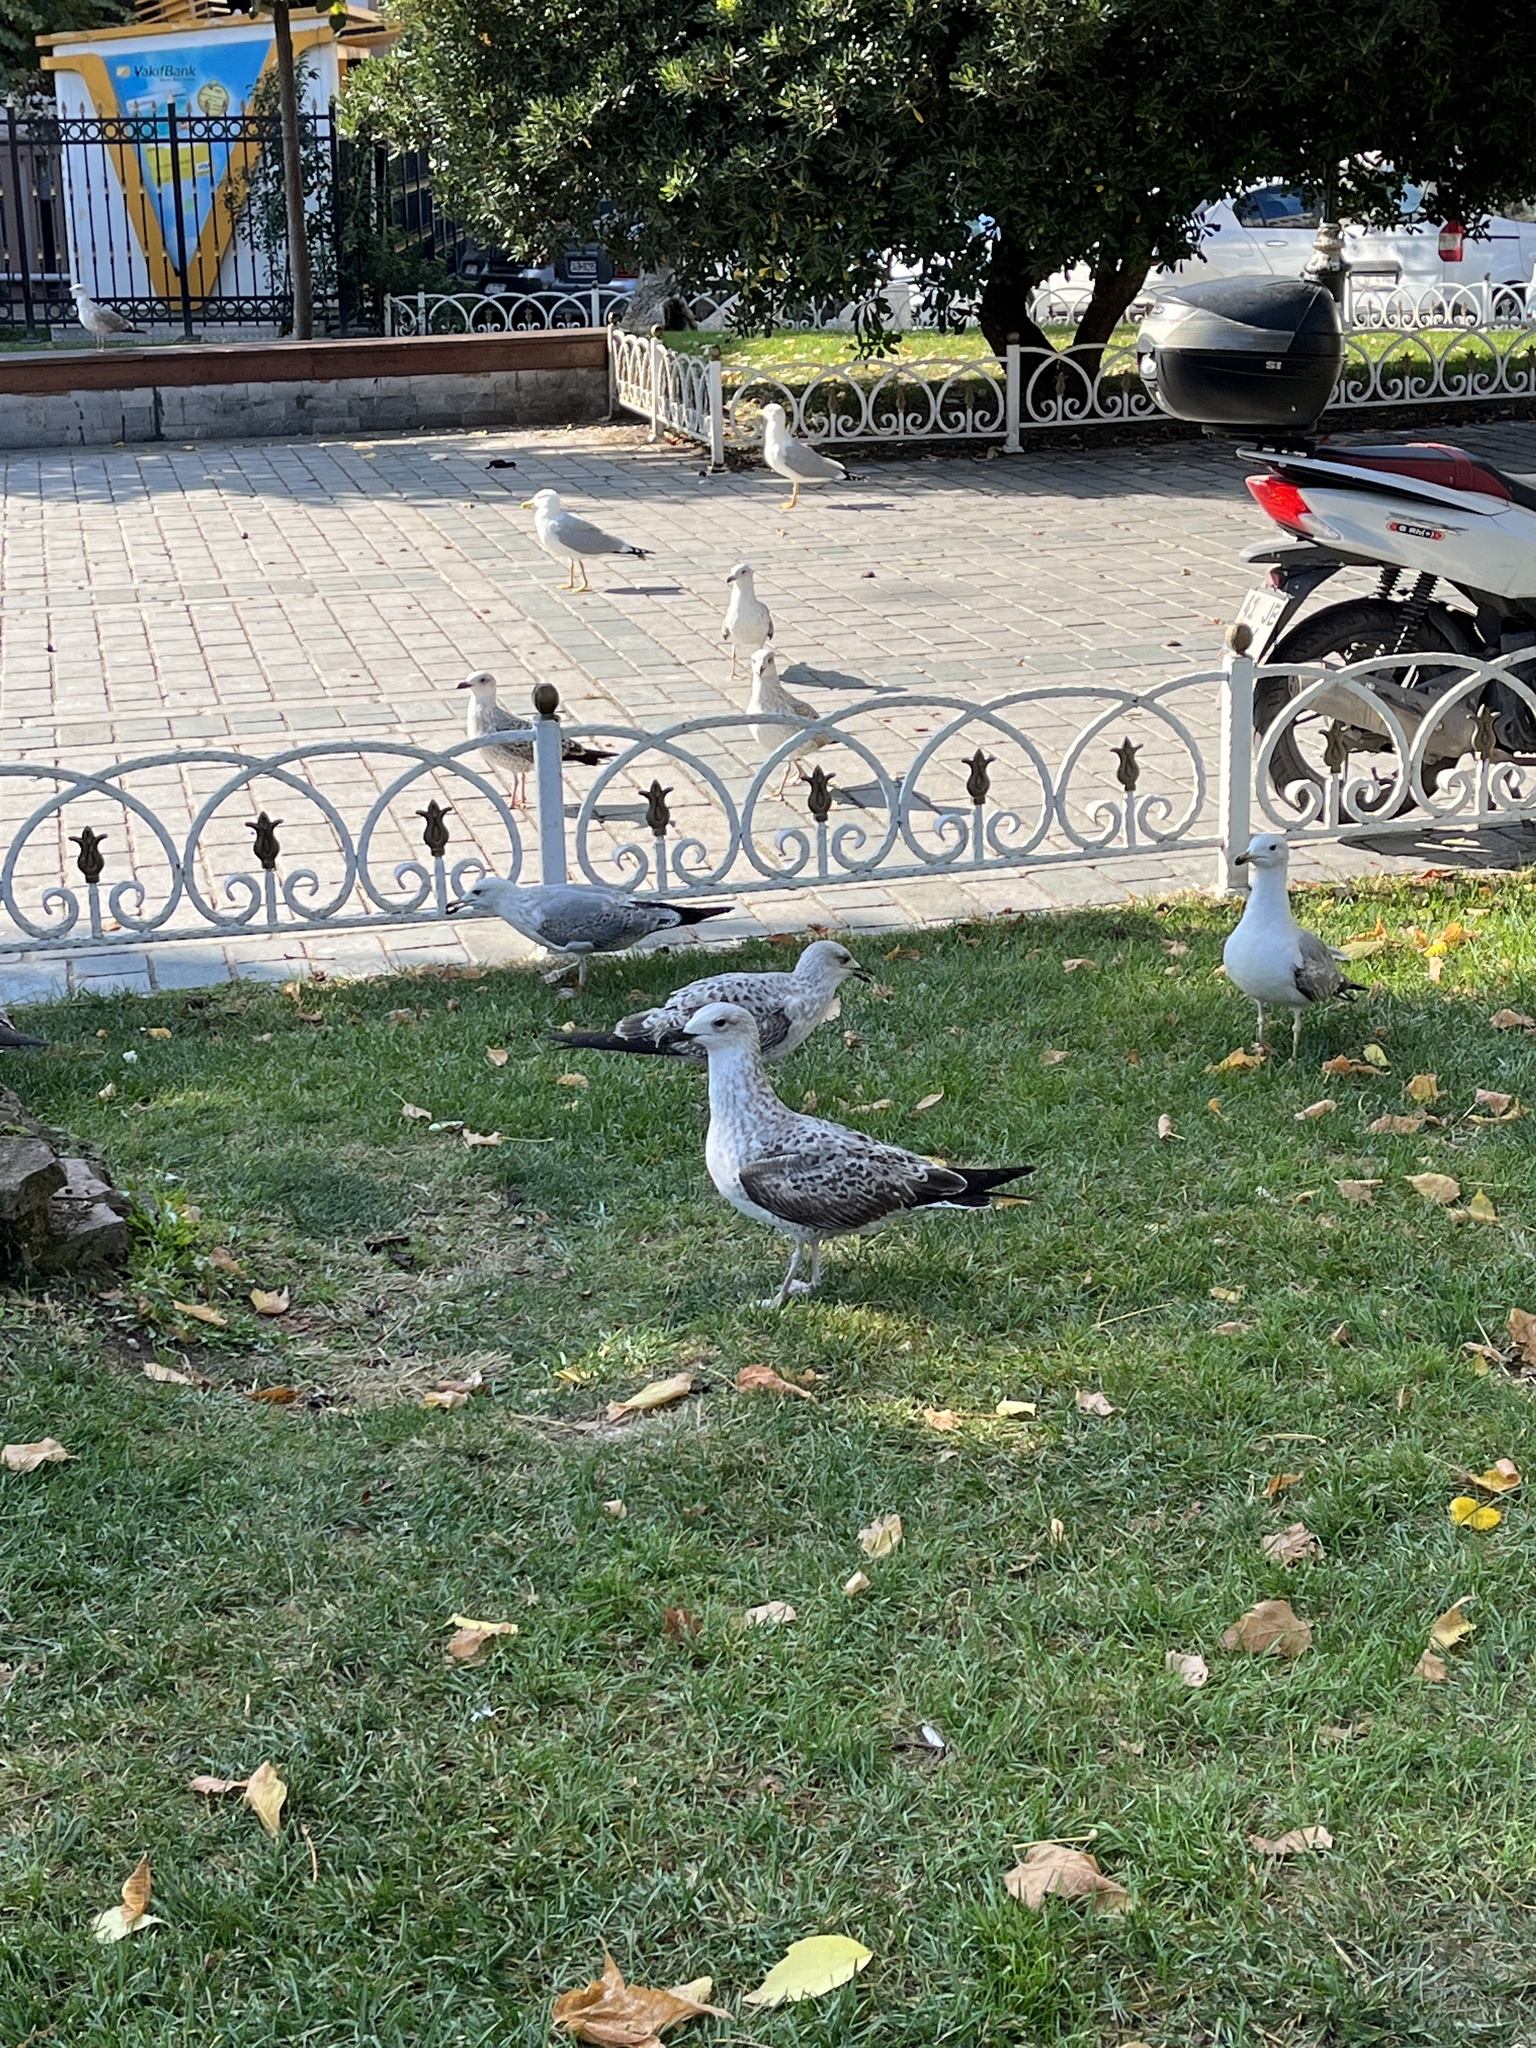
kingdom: Animalia
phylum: Chordata
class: Aves
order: Charadriiformes
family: Laridae
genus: Larus
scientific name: Larus michahellis
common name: Yellow-legged gull
